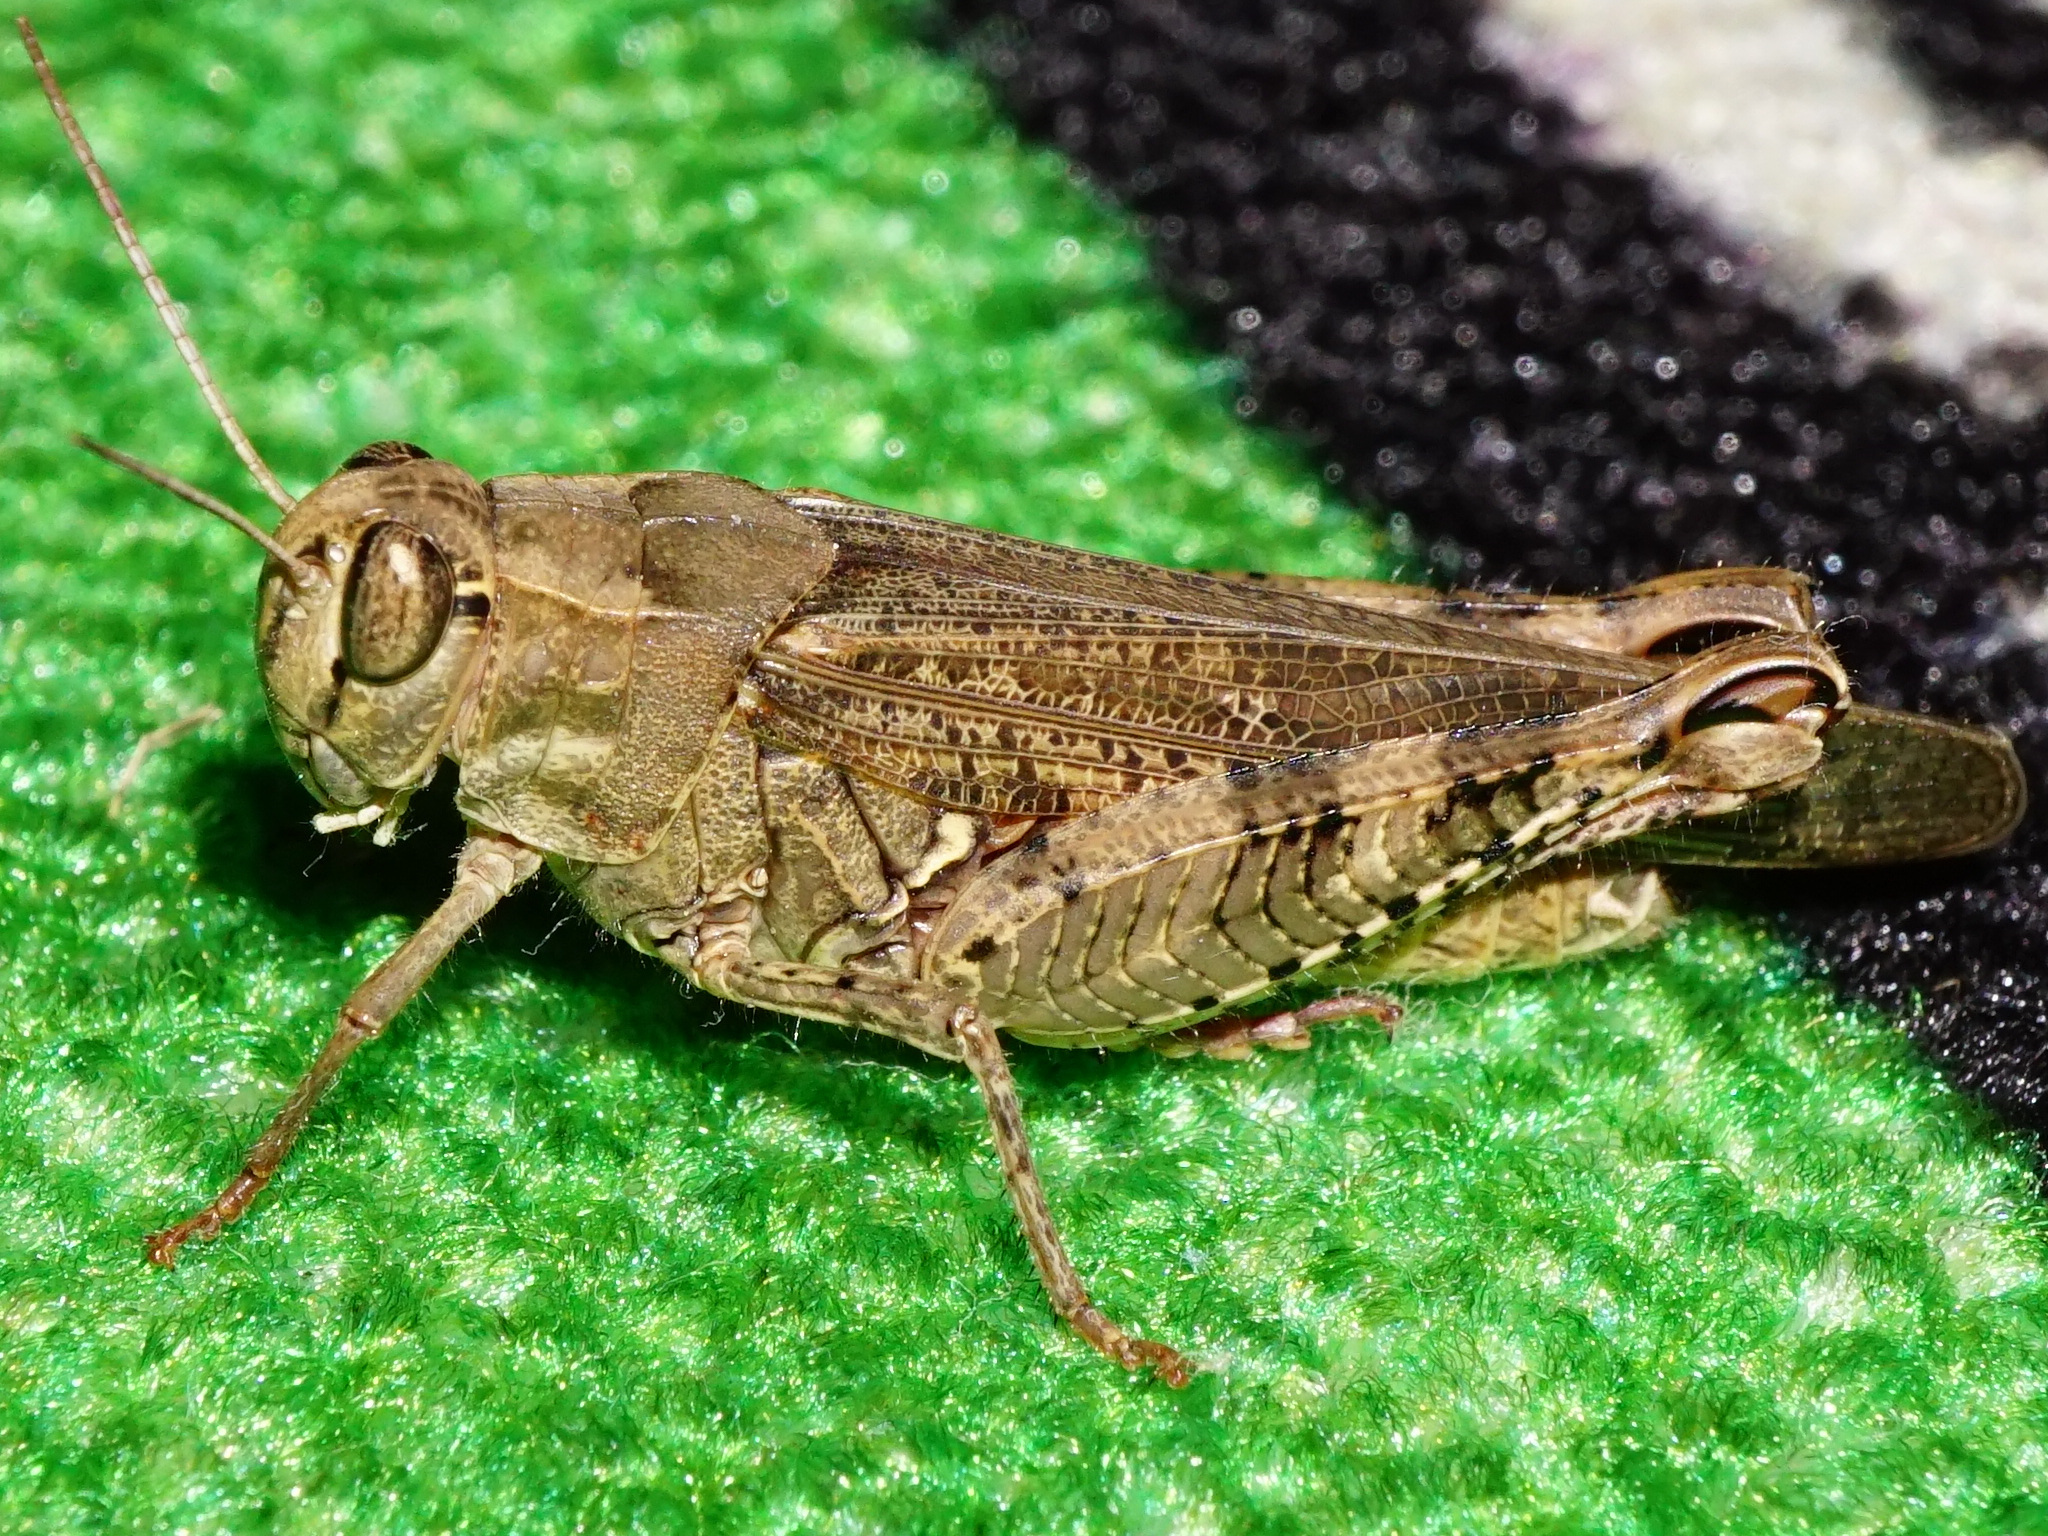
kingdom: Animalia
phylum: Arthropoda
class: Insecta
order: Orthoptera
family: Acrididae
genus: Calliptamus
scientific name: Calliptamus italicus
